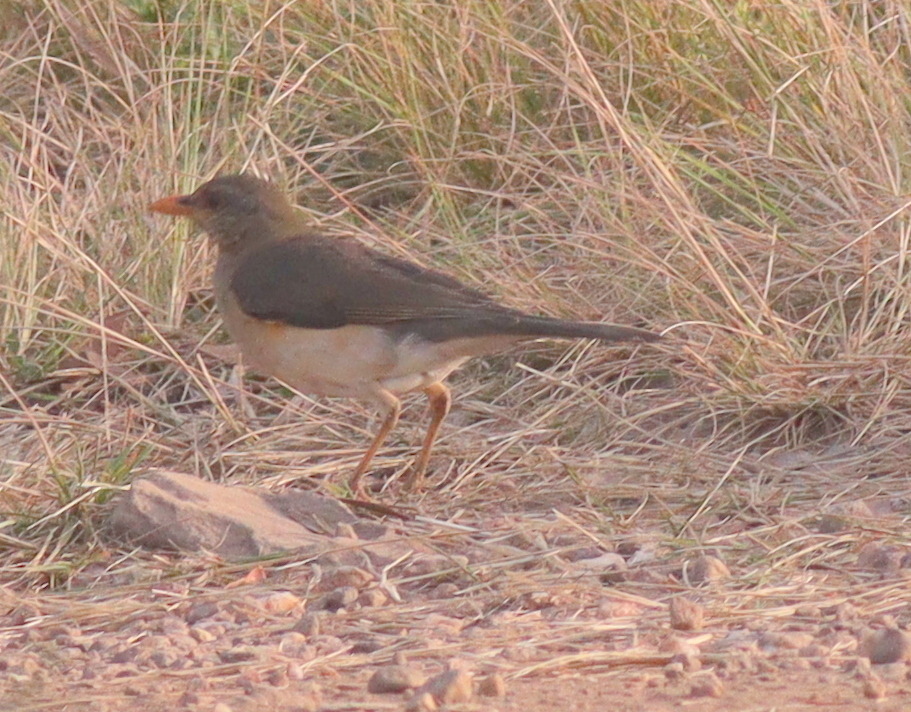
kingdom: Animalia
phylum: Chordata
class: Aves
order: Passeriformes
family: Turdidae
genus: Turdus
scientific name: Turdus pelios
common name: African thrush
